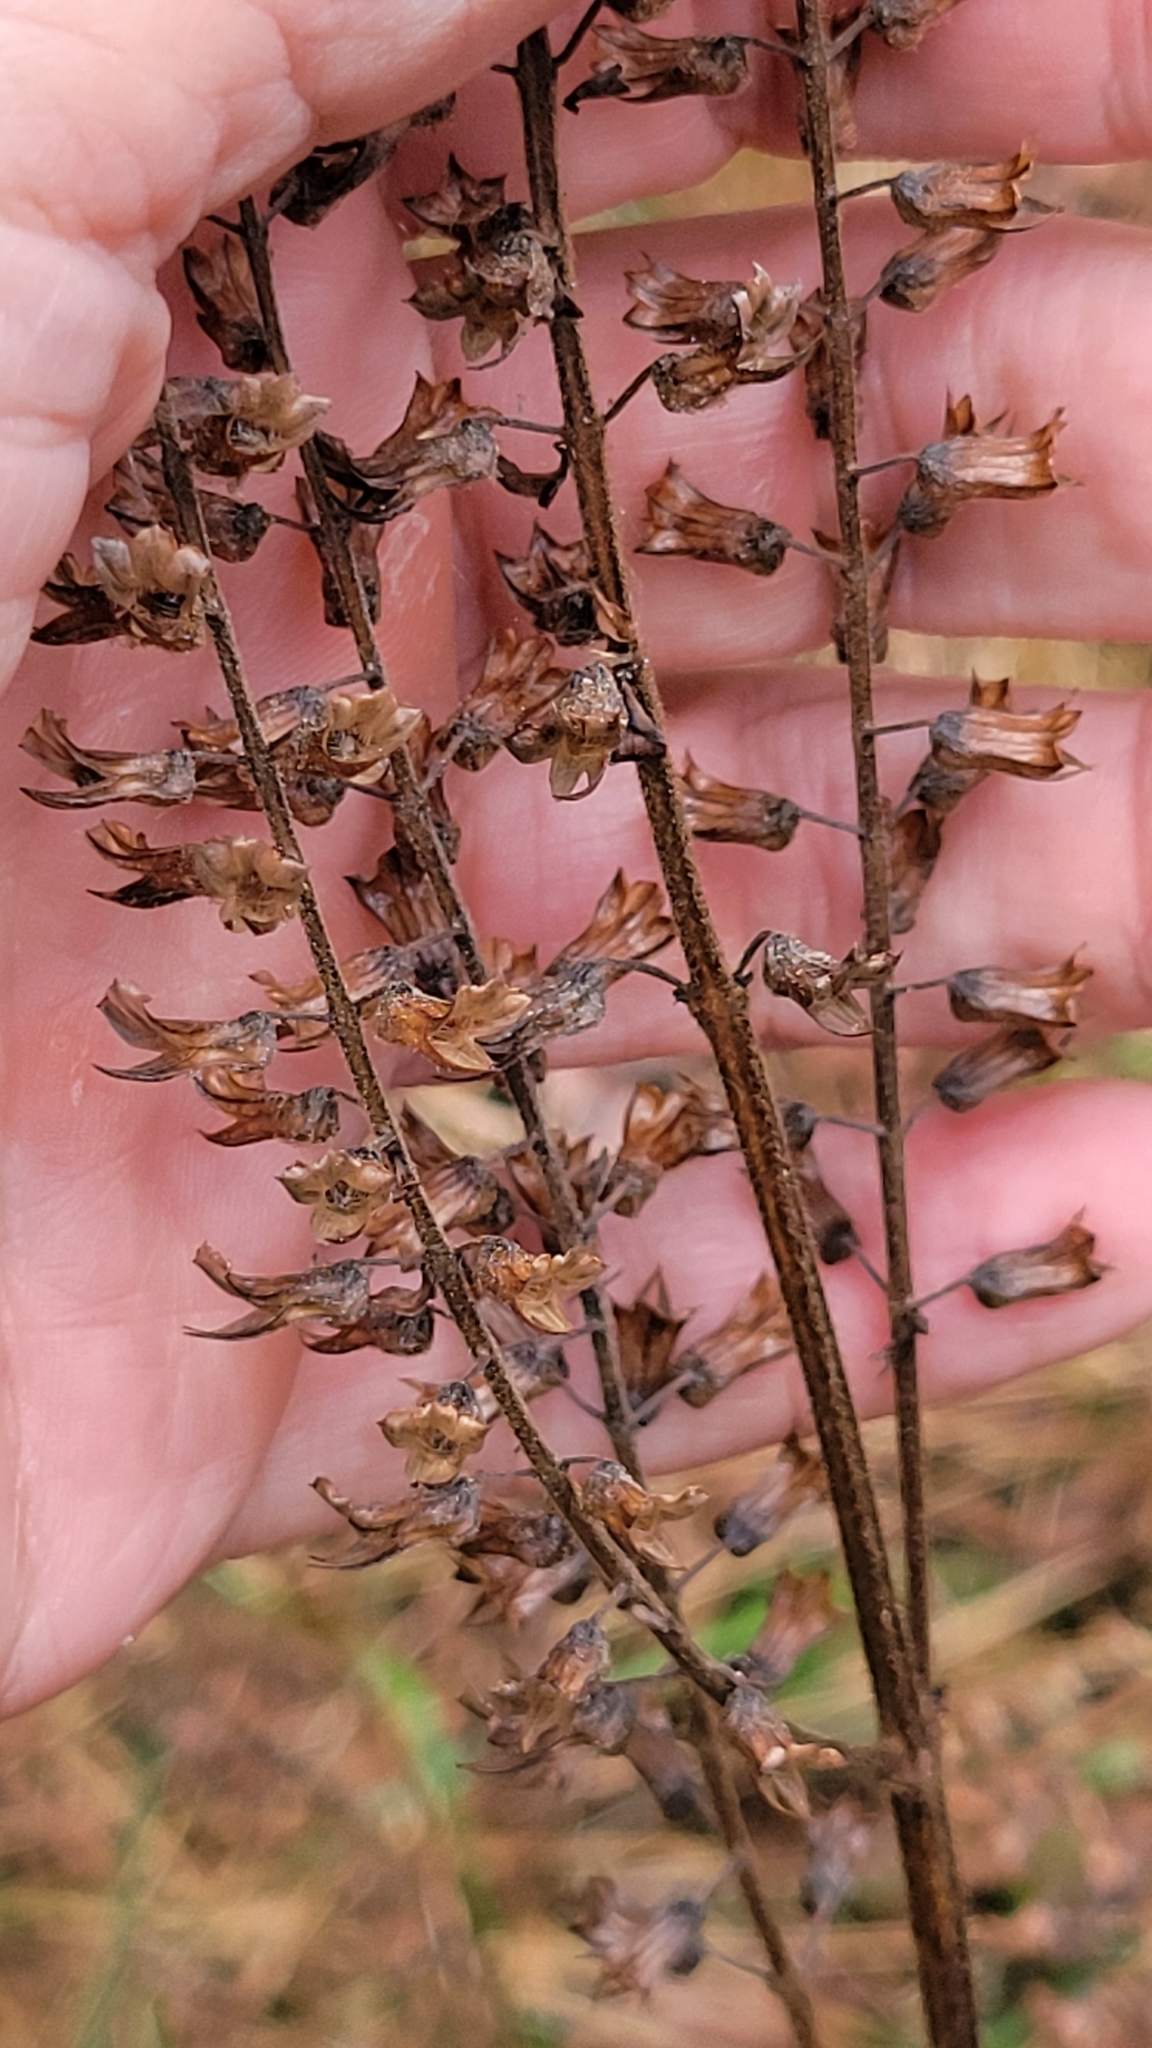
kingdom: Plantae
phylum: Tracheophyta
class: Magnoliopsida
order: Lamiales
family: Lamiaceae
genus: Perilla
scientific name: Perilla frutescens
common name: Perilla
